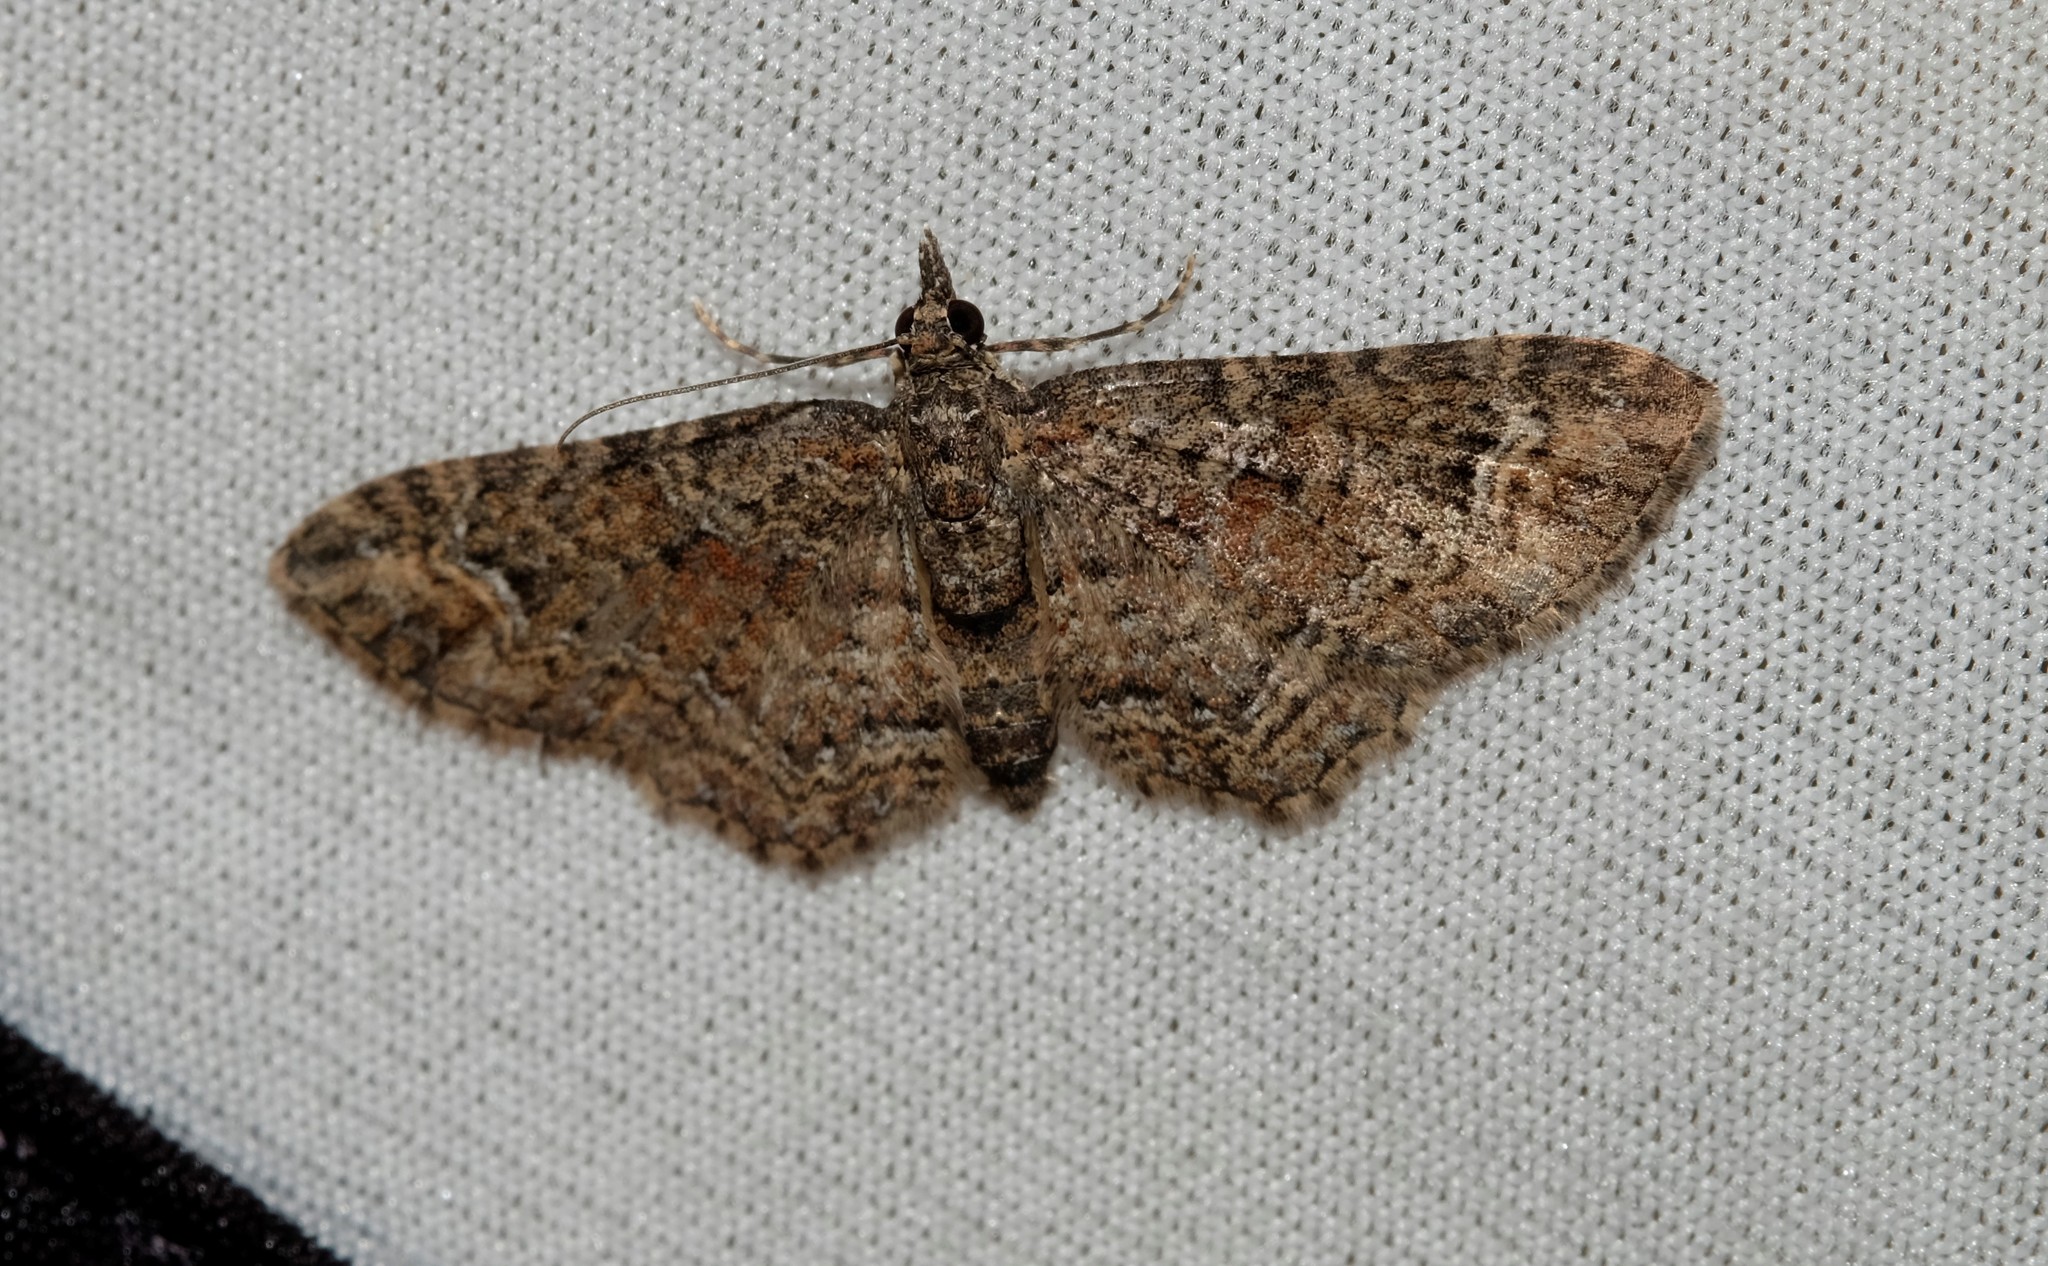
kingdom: Animalia
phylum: Arthropoda
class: Insecta
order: Lepidoptera
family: Geometridae
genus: Pasiphilodes
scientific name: Pasiphilodes testulata
